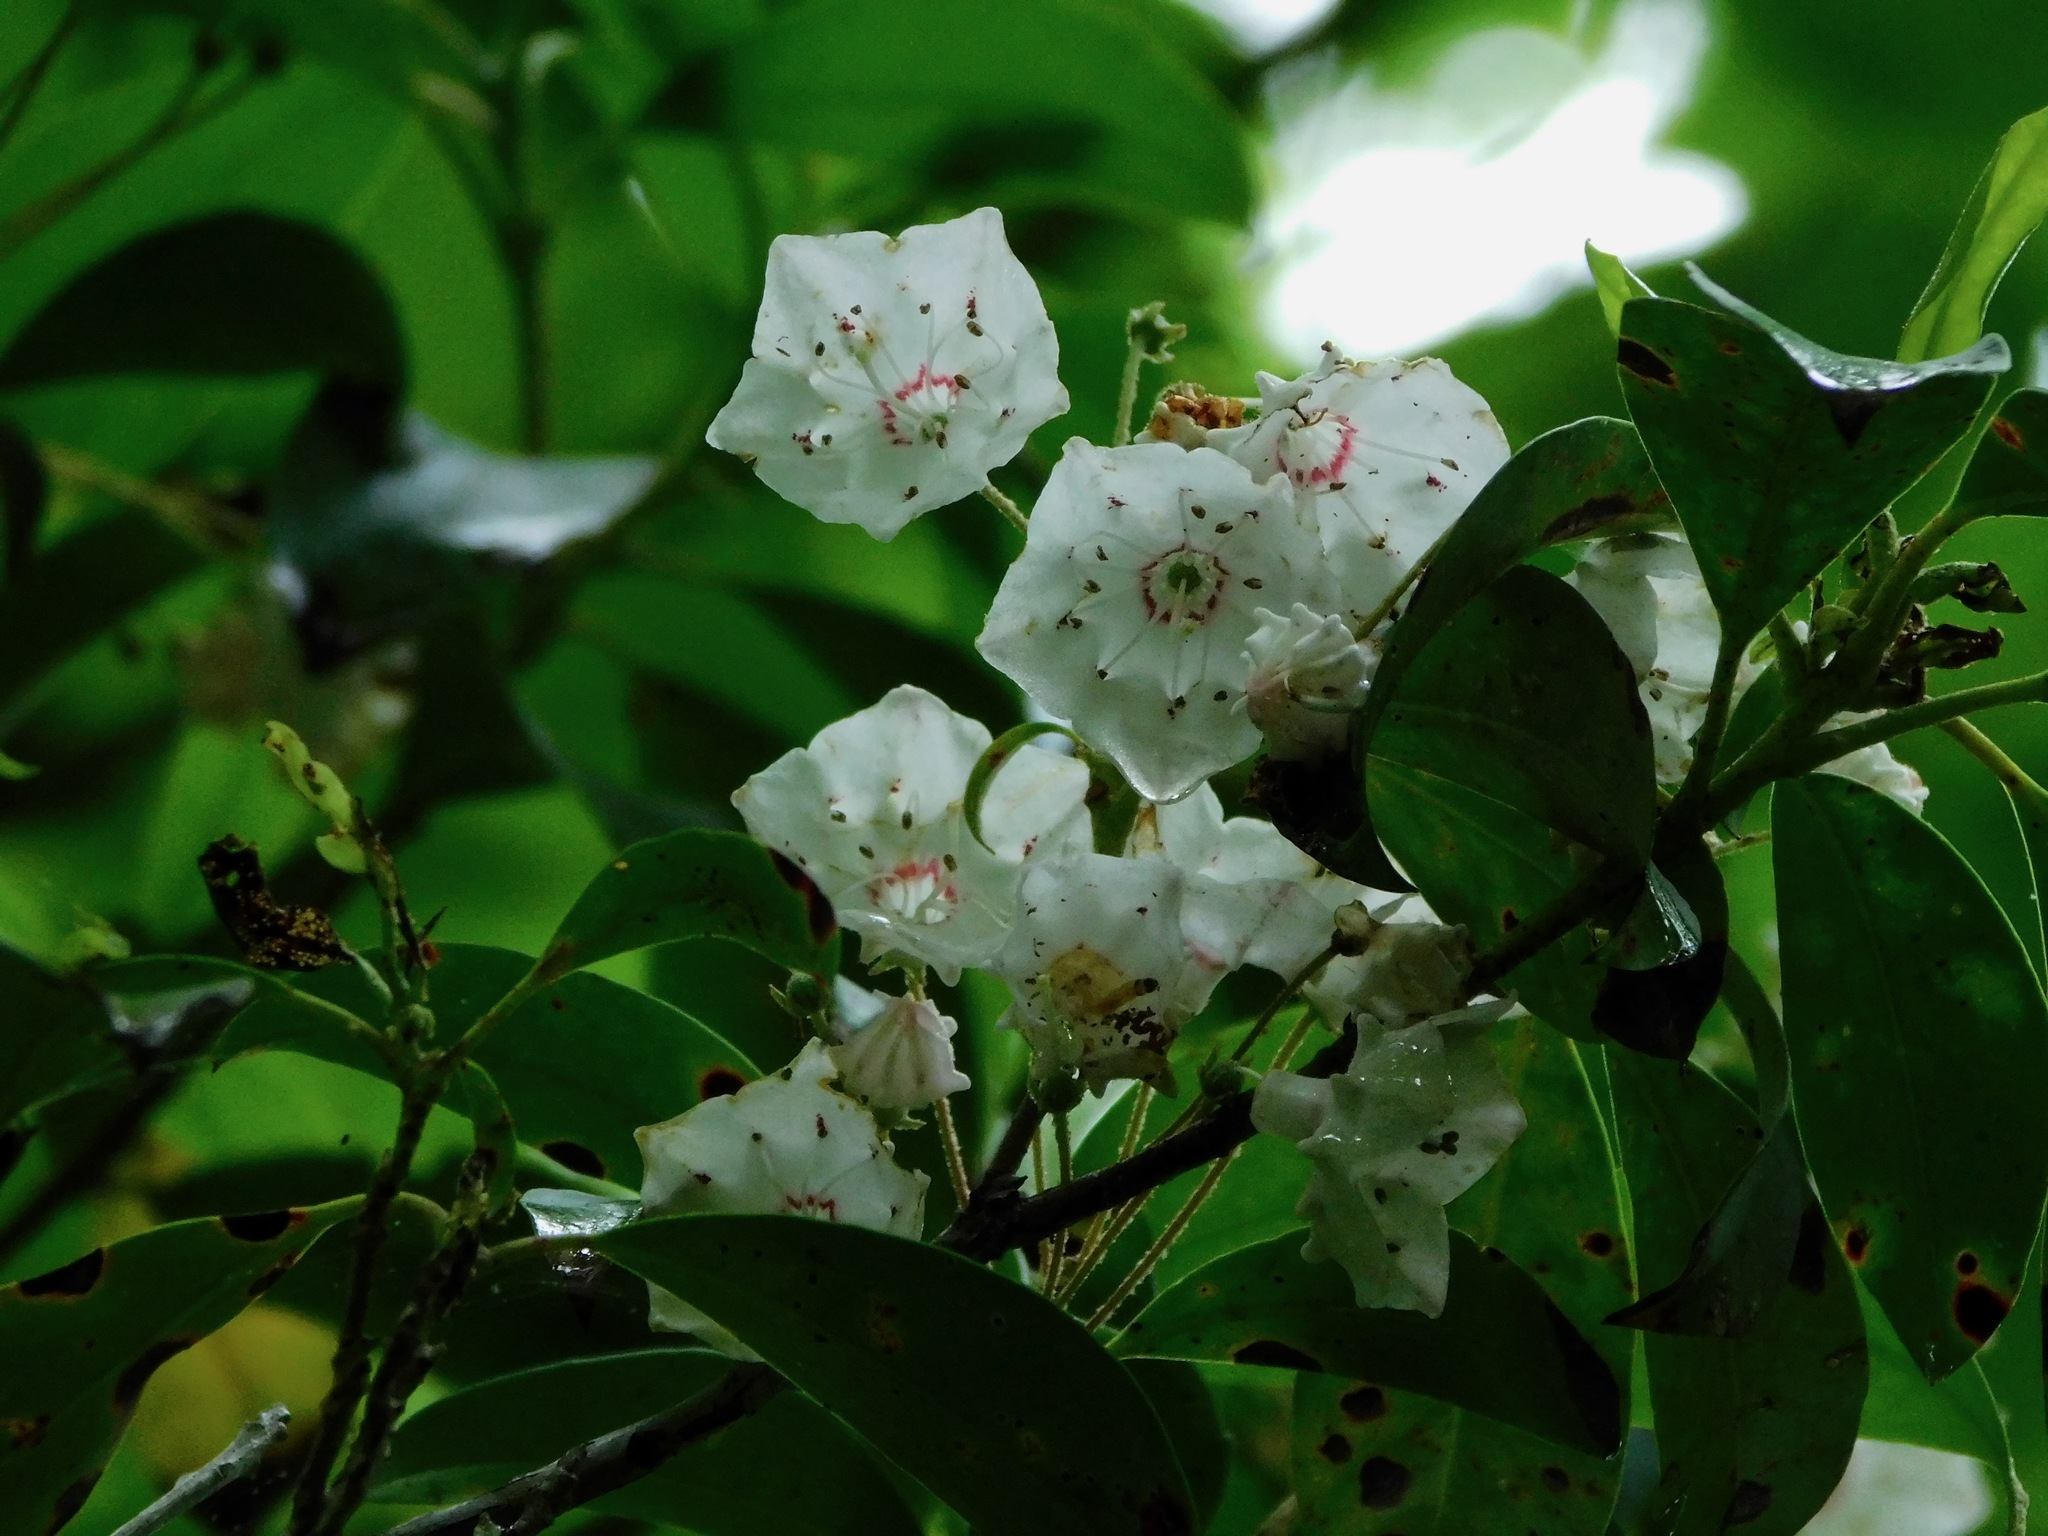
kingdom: Plantae
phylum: Tracheophyta
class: Magnoliopsida
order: Ericales
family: Ericaceae
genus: Kalmia
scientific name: Kalmia latifolia
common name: Mountain-laurel
